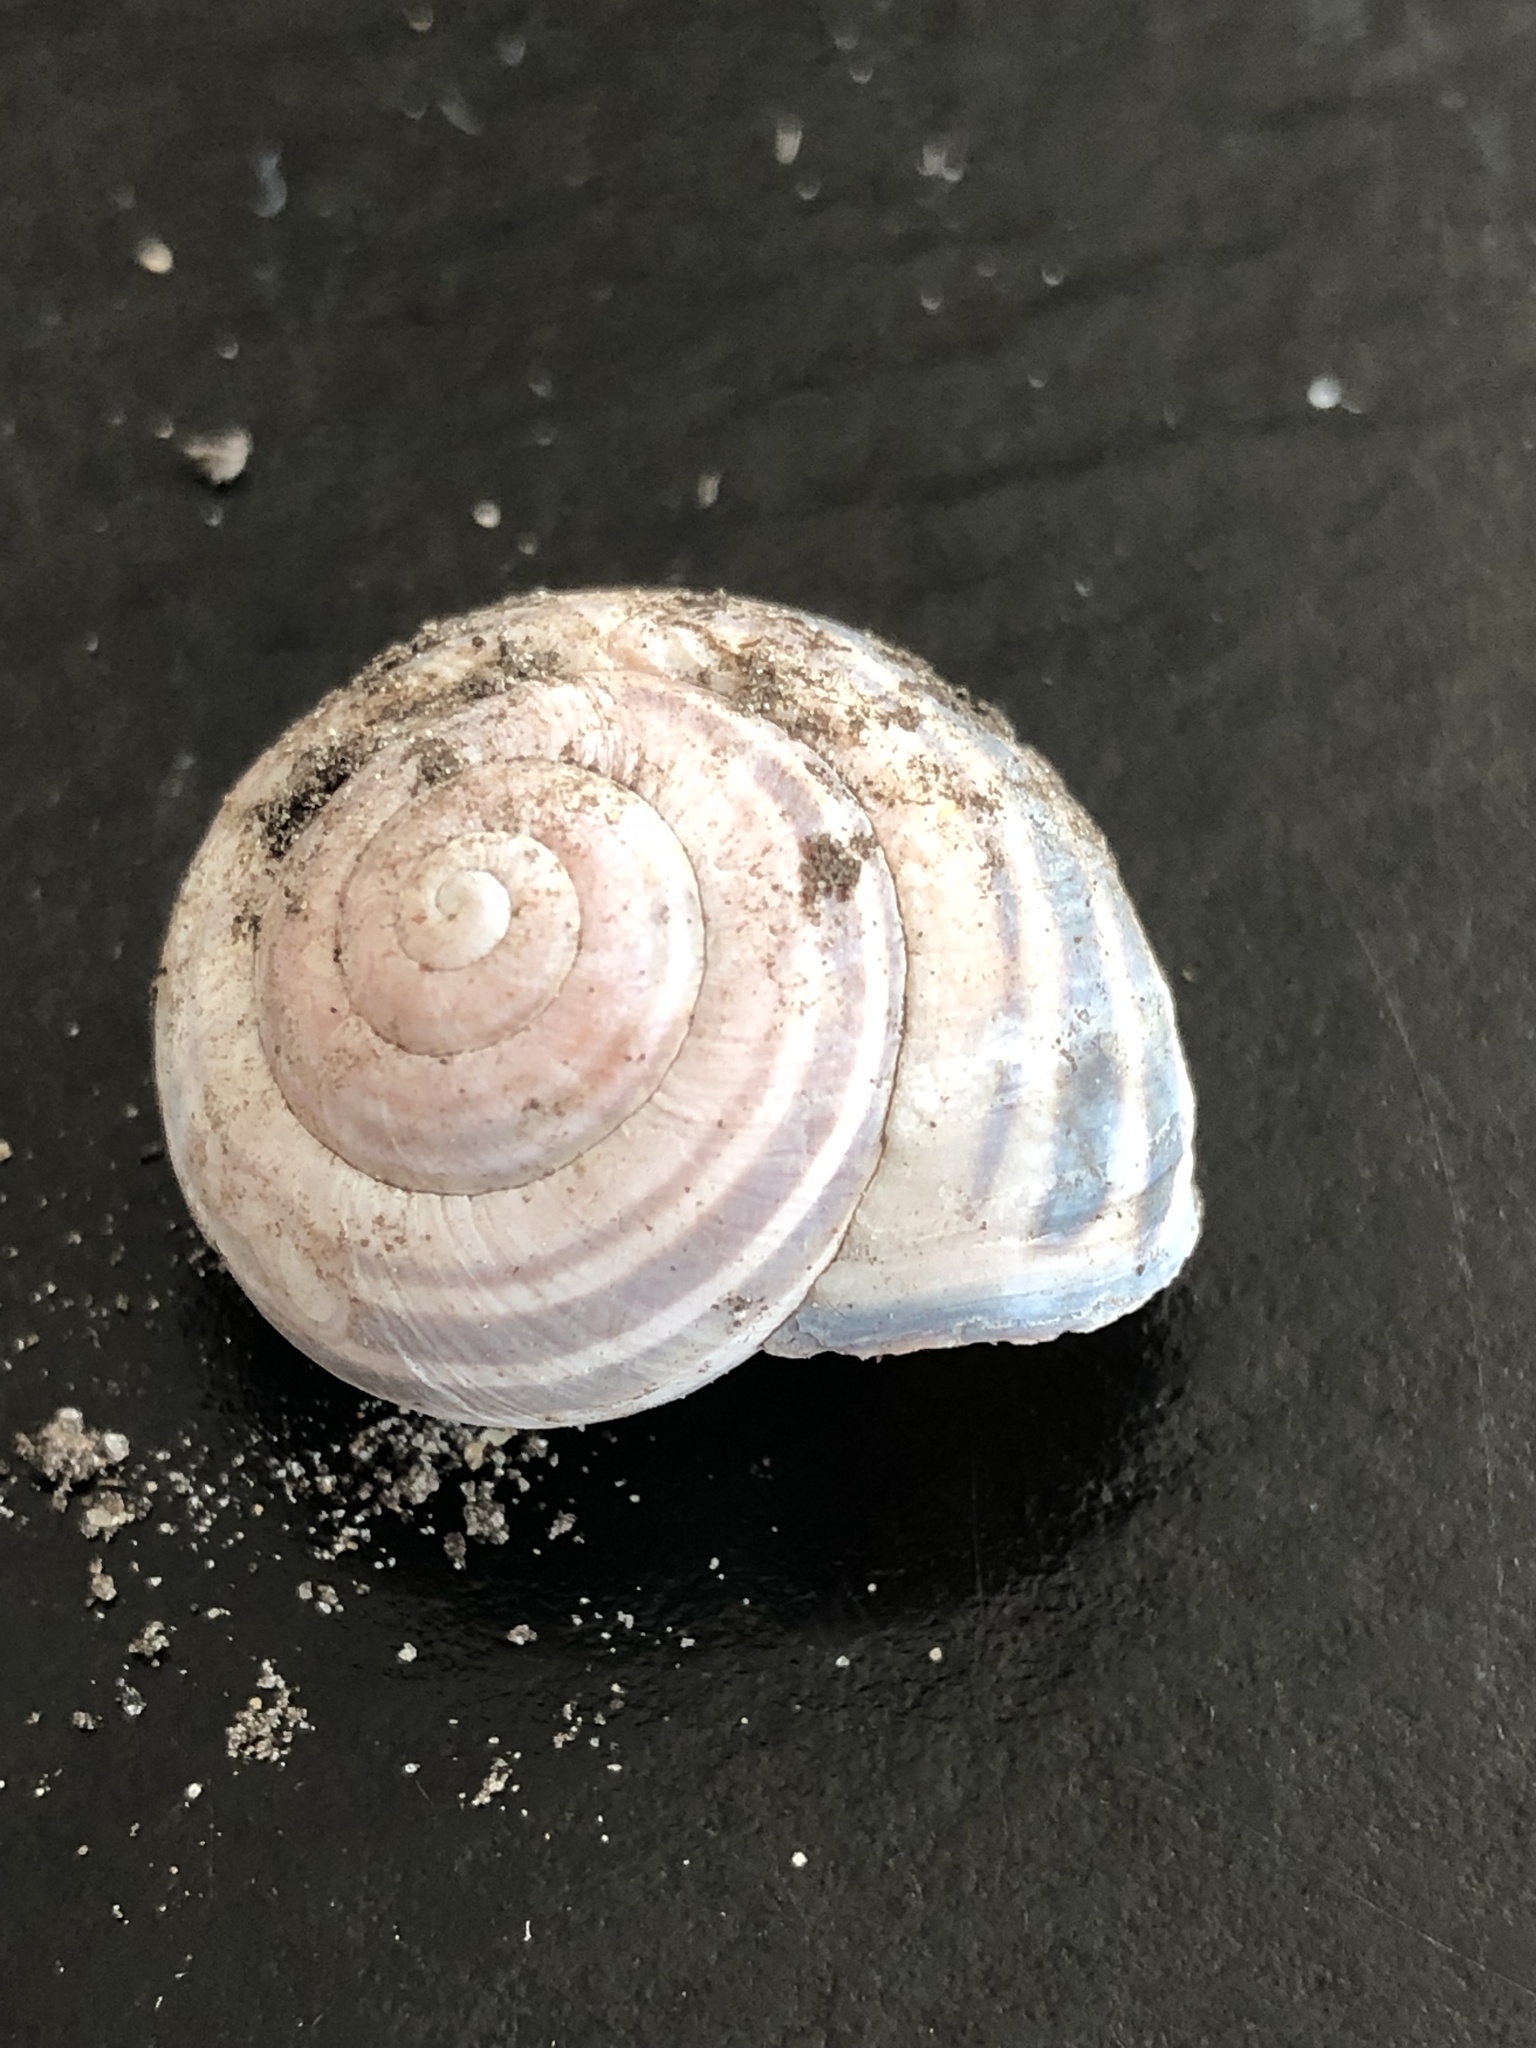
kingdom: Animalia
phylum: Mollusca
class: Gastropoda
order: Stylommatophora
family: Helicidae
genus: Cepaea
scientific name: Cepaea nemoralis
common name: Grovesnail
